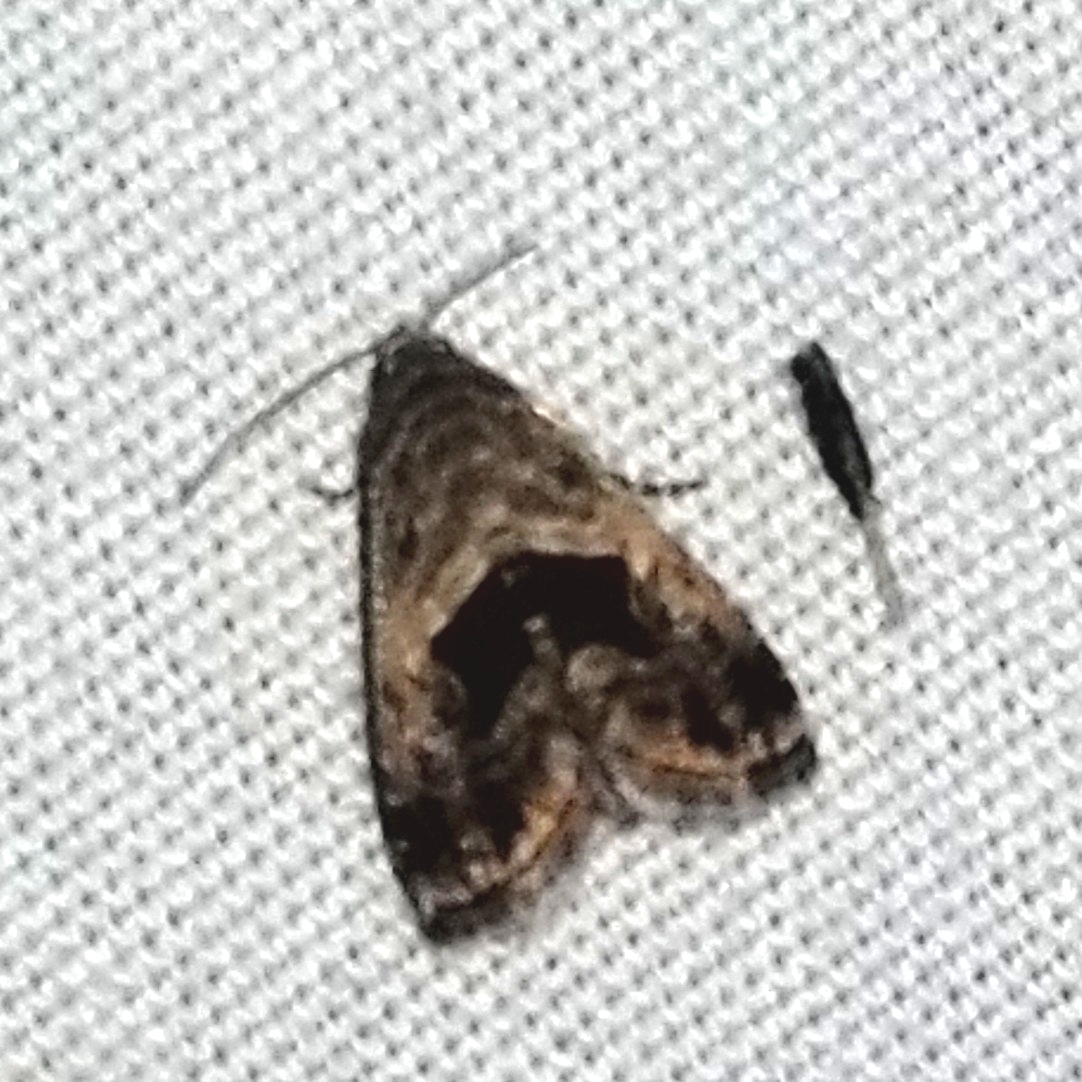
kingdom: Animalia
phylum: Arthropoda
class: Insecta
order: Lepidoptera
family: Noctuidae
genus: Tripudia
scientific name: Tripudia quadrifera
